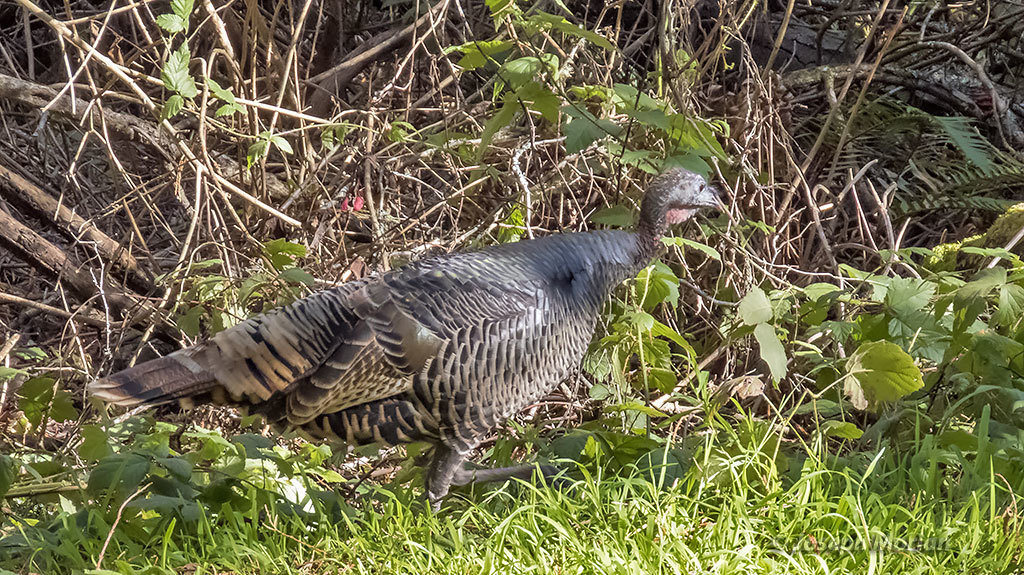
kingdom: Animalia
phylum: Chordata
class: Aves
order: Galliformes
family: Phasianidae
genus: Meleagris
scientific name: Meleagris gallopavo
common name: Wild turkey
